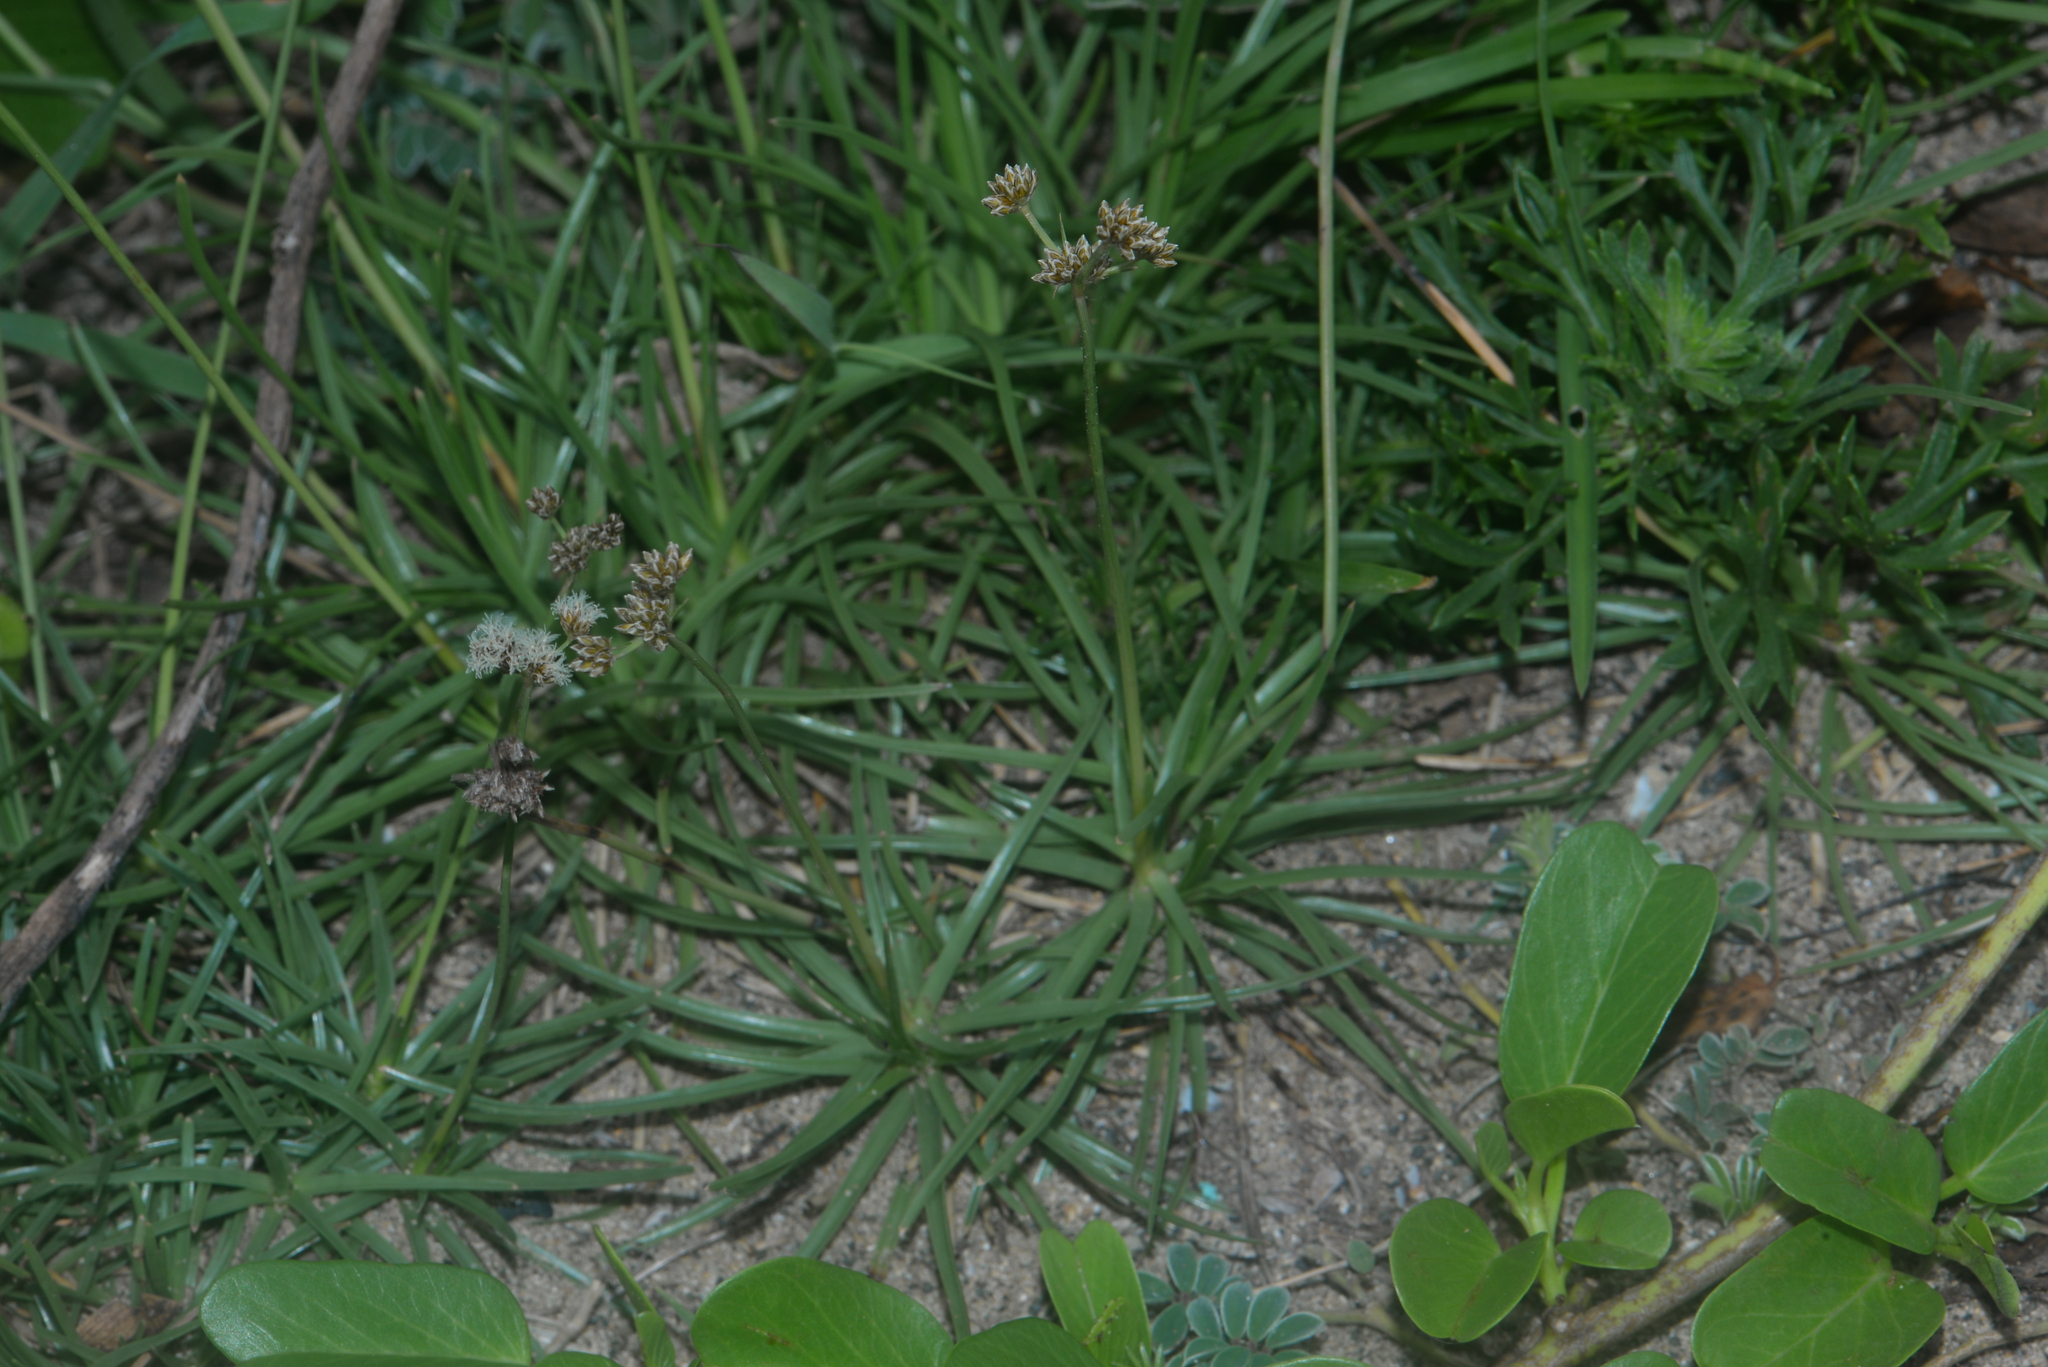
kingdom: Plantae
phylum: Tracheophyta
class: Liliopsida
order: Poales
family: Cyperaceae
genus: Fimbristylis
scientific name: Fimbristylis cymosa
